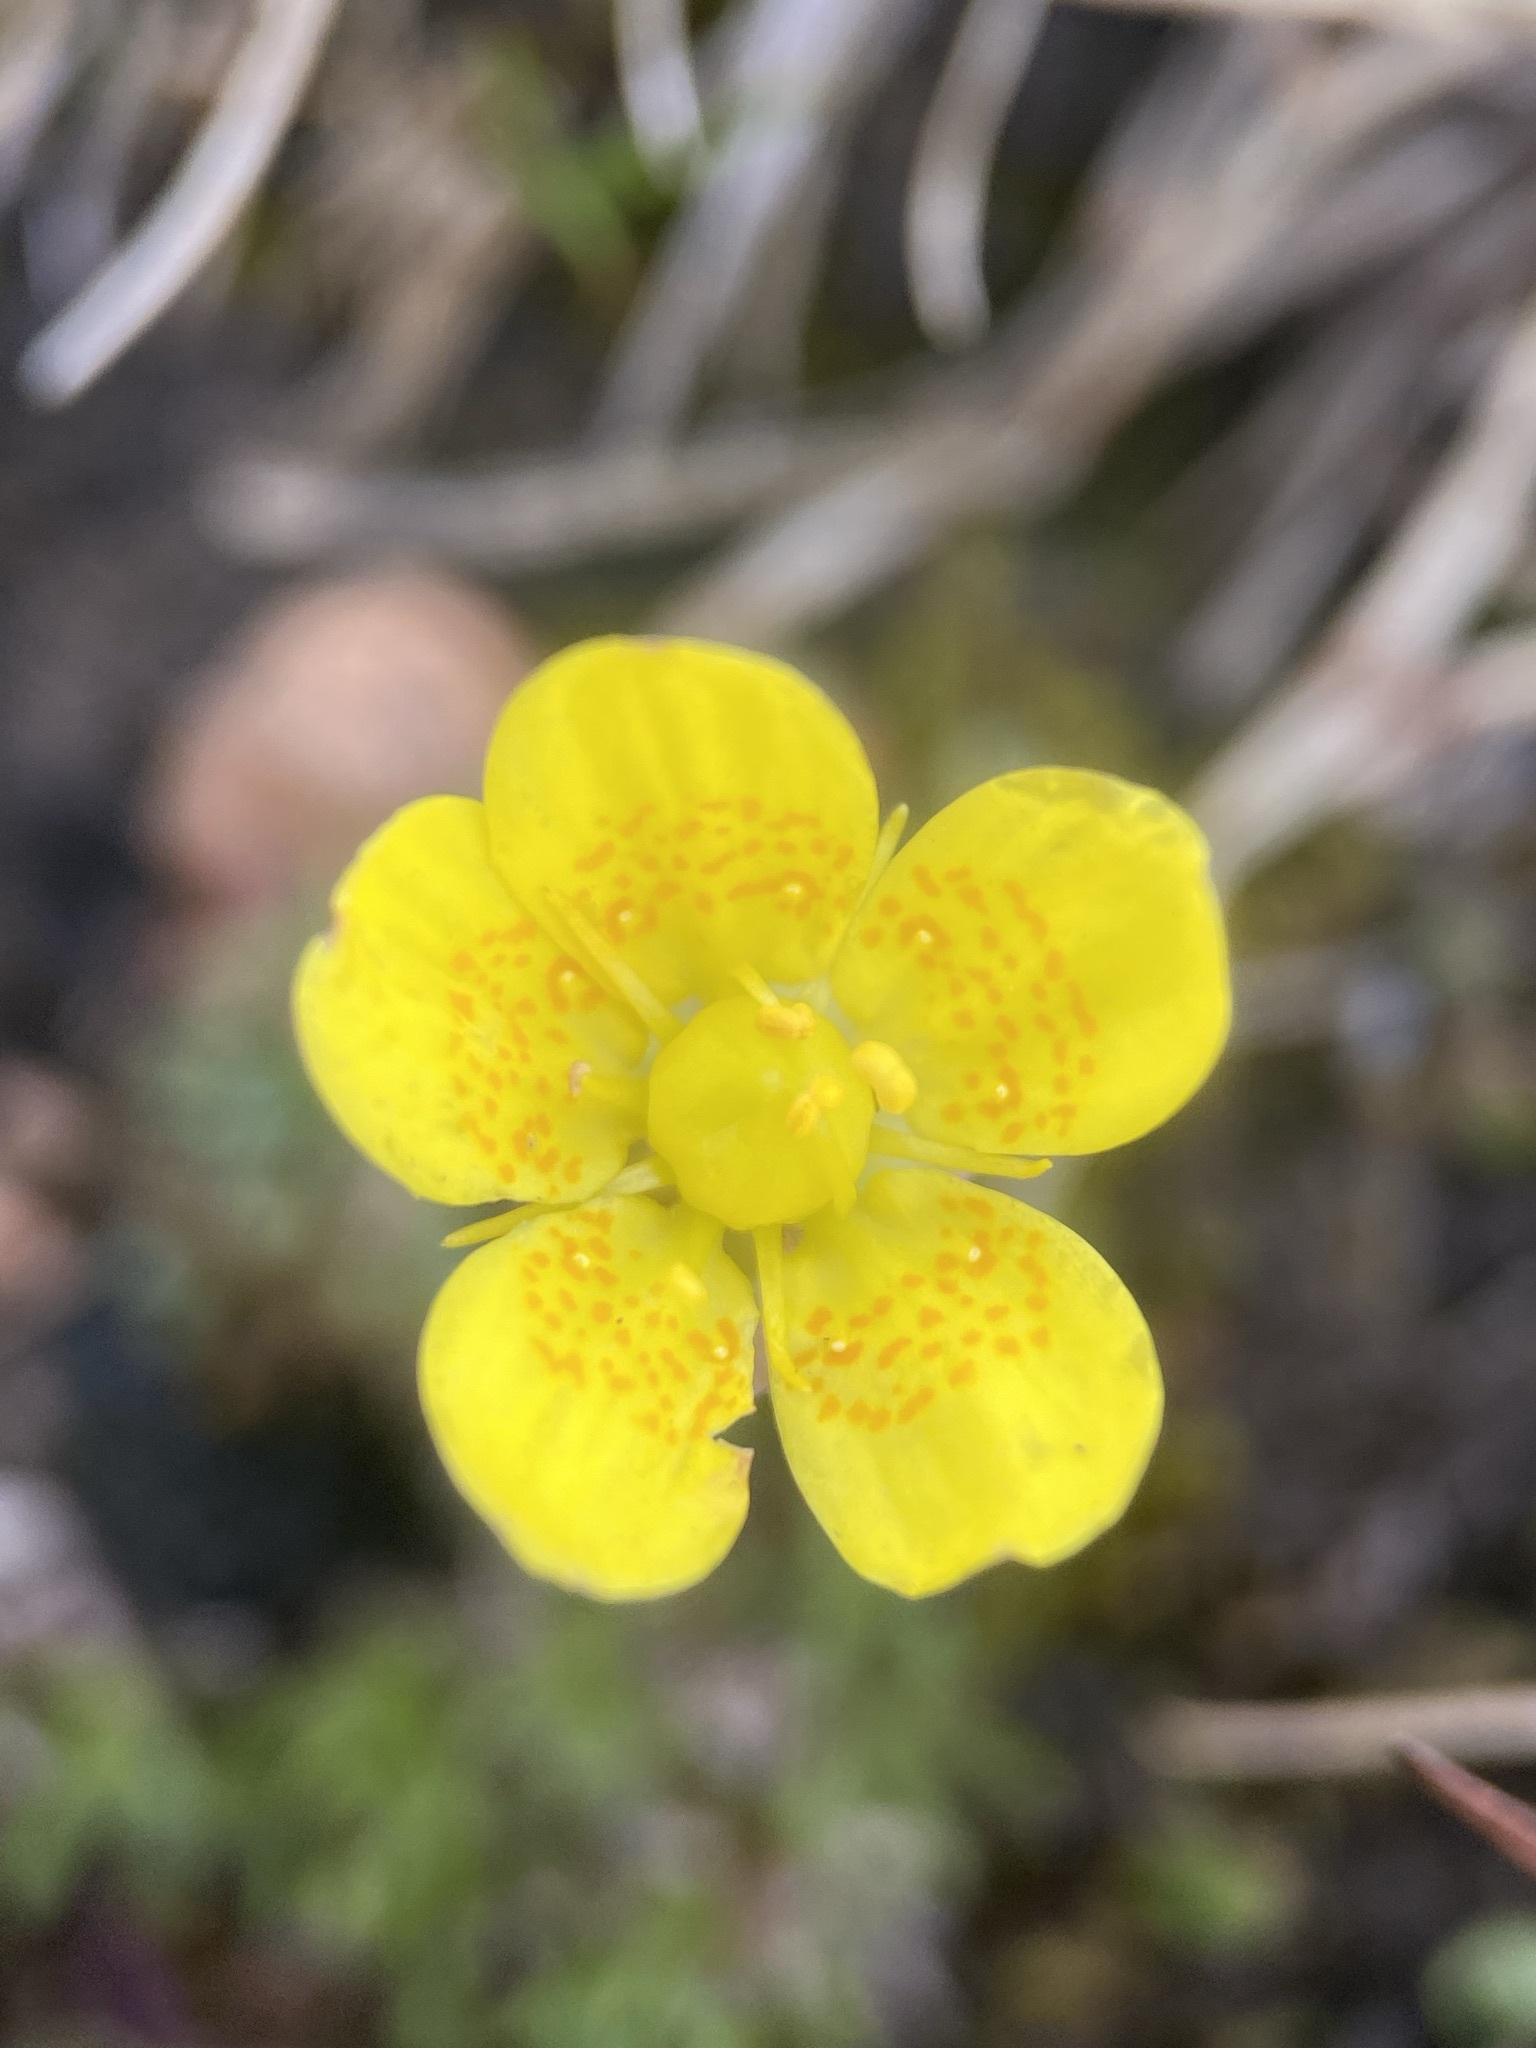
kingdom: Plantae
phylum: Tracheophyta
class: Magnoliopsida
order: Saxifragales
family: Saxifragaceae
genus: Saxifraga
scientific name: Saxifraga chrysantha
